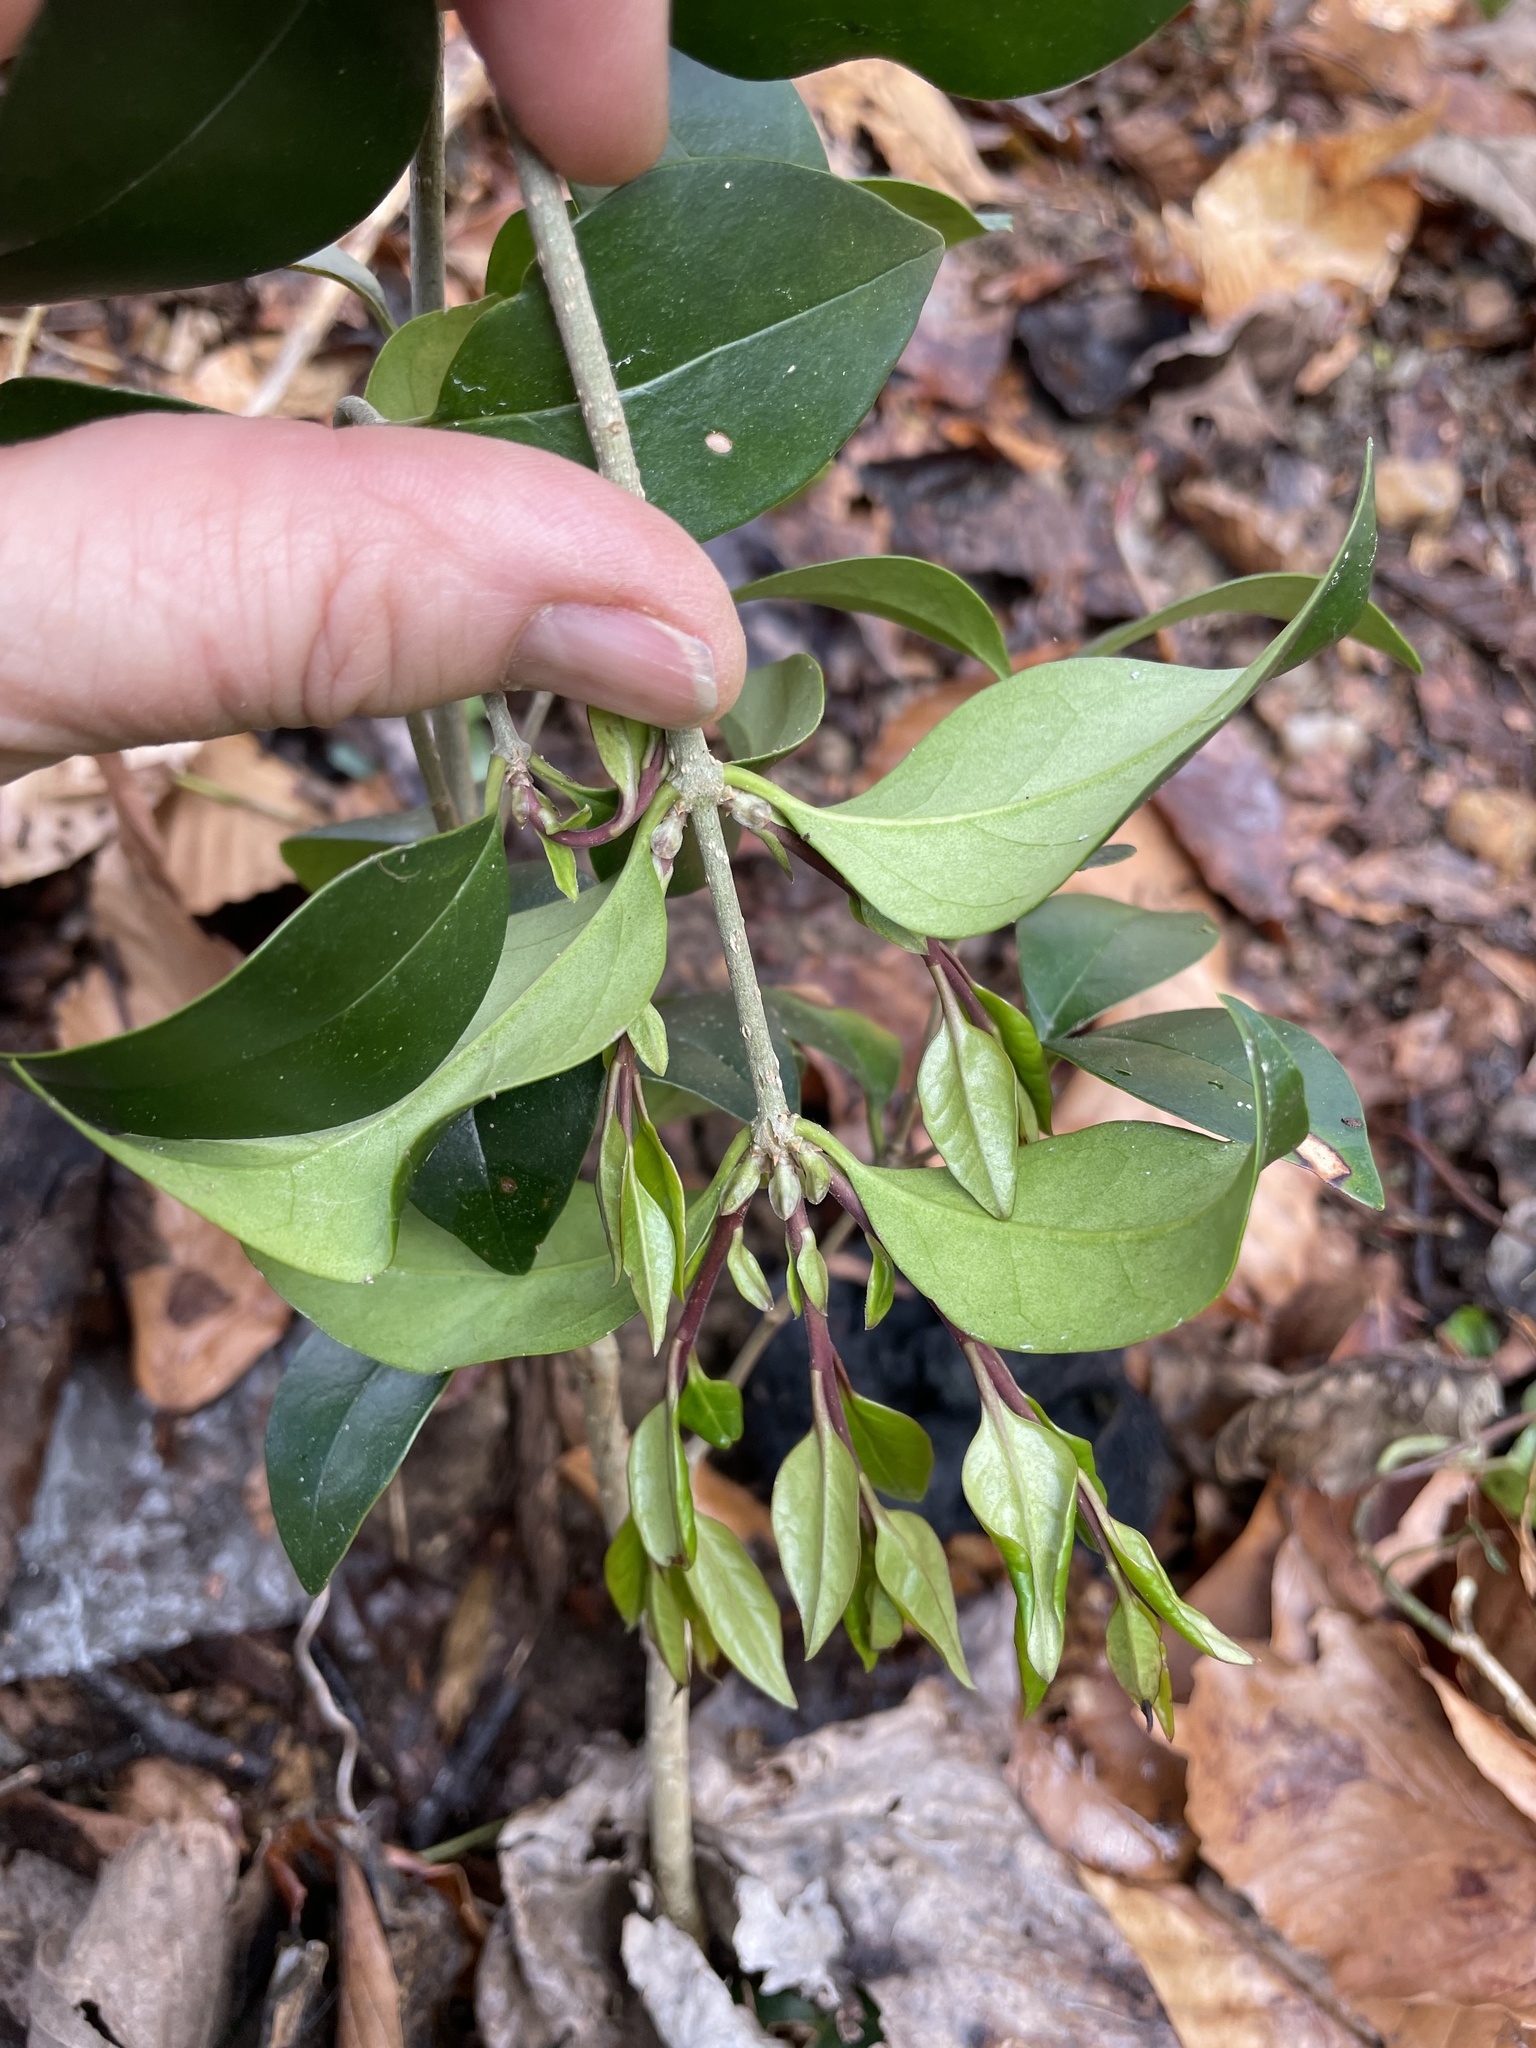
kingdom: Plantae
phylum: Tracheophyta
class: Magnoliopsida
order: Lamiales
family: Oleaceae
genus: Ligustrum
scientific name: Ligustrum lucidum
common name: Glossy privet
